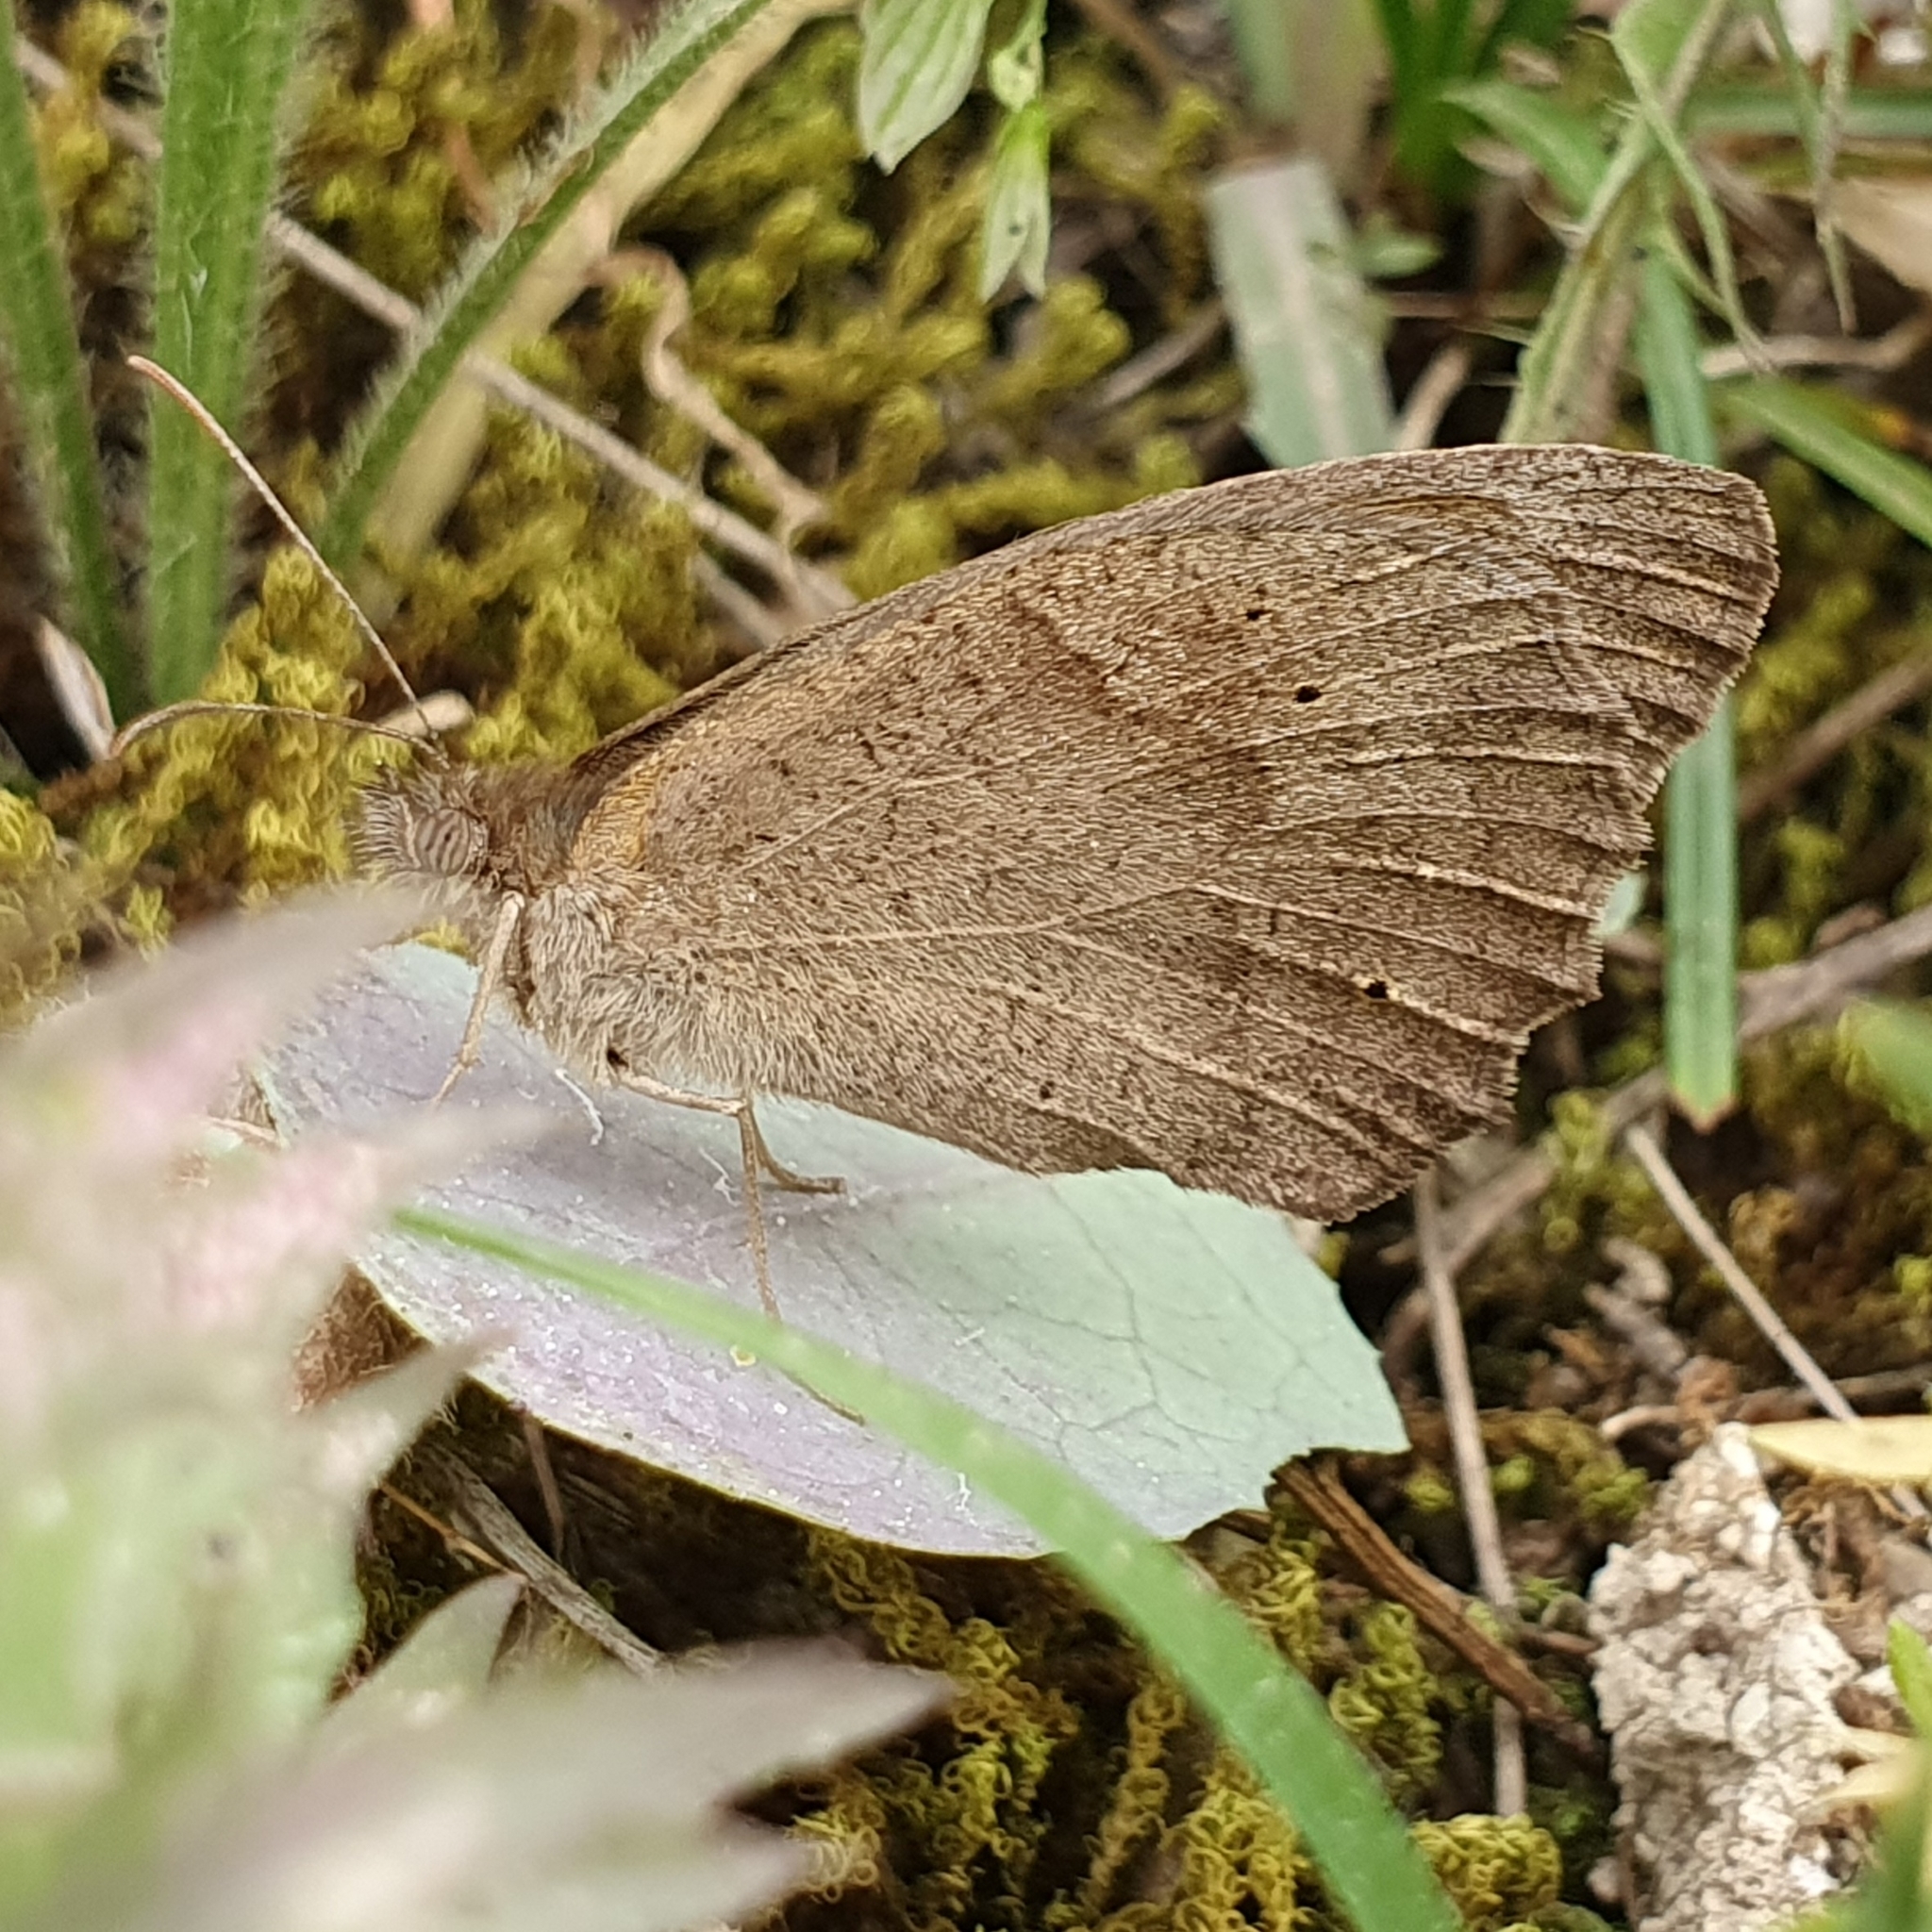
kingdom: Animalia
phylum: Arthropoda
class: Insecta
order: Lepidoptera
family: Nymphalidae
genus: Maniola
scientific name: Maniola jurtina
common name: Meadow brown
